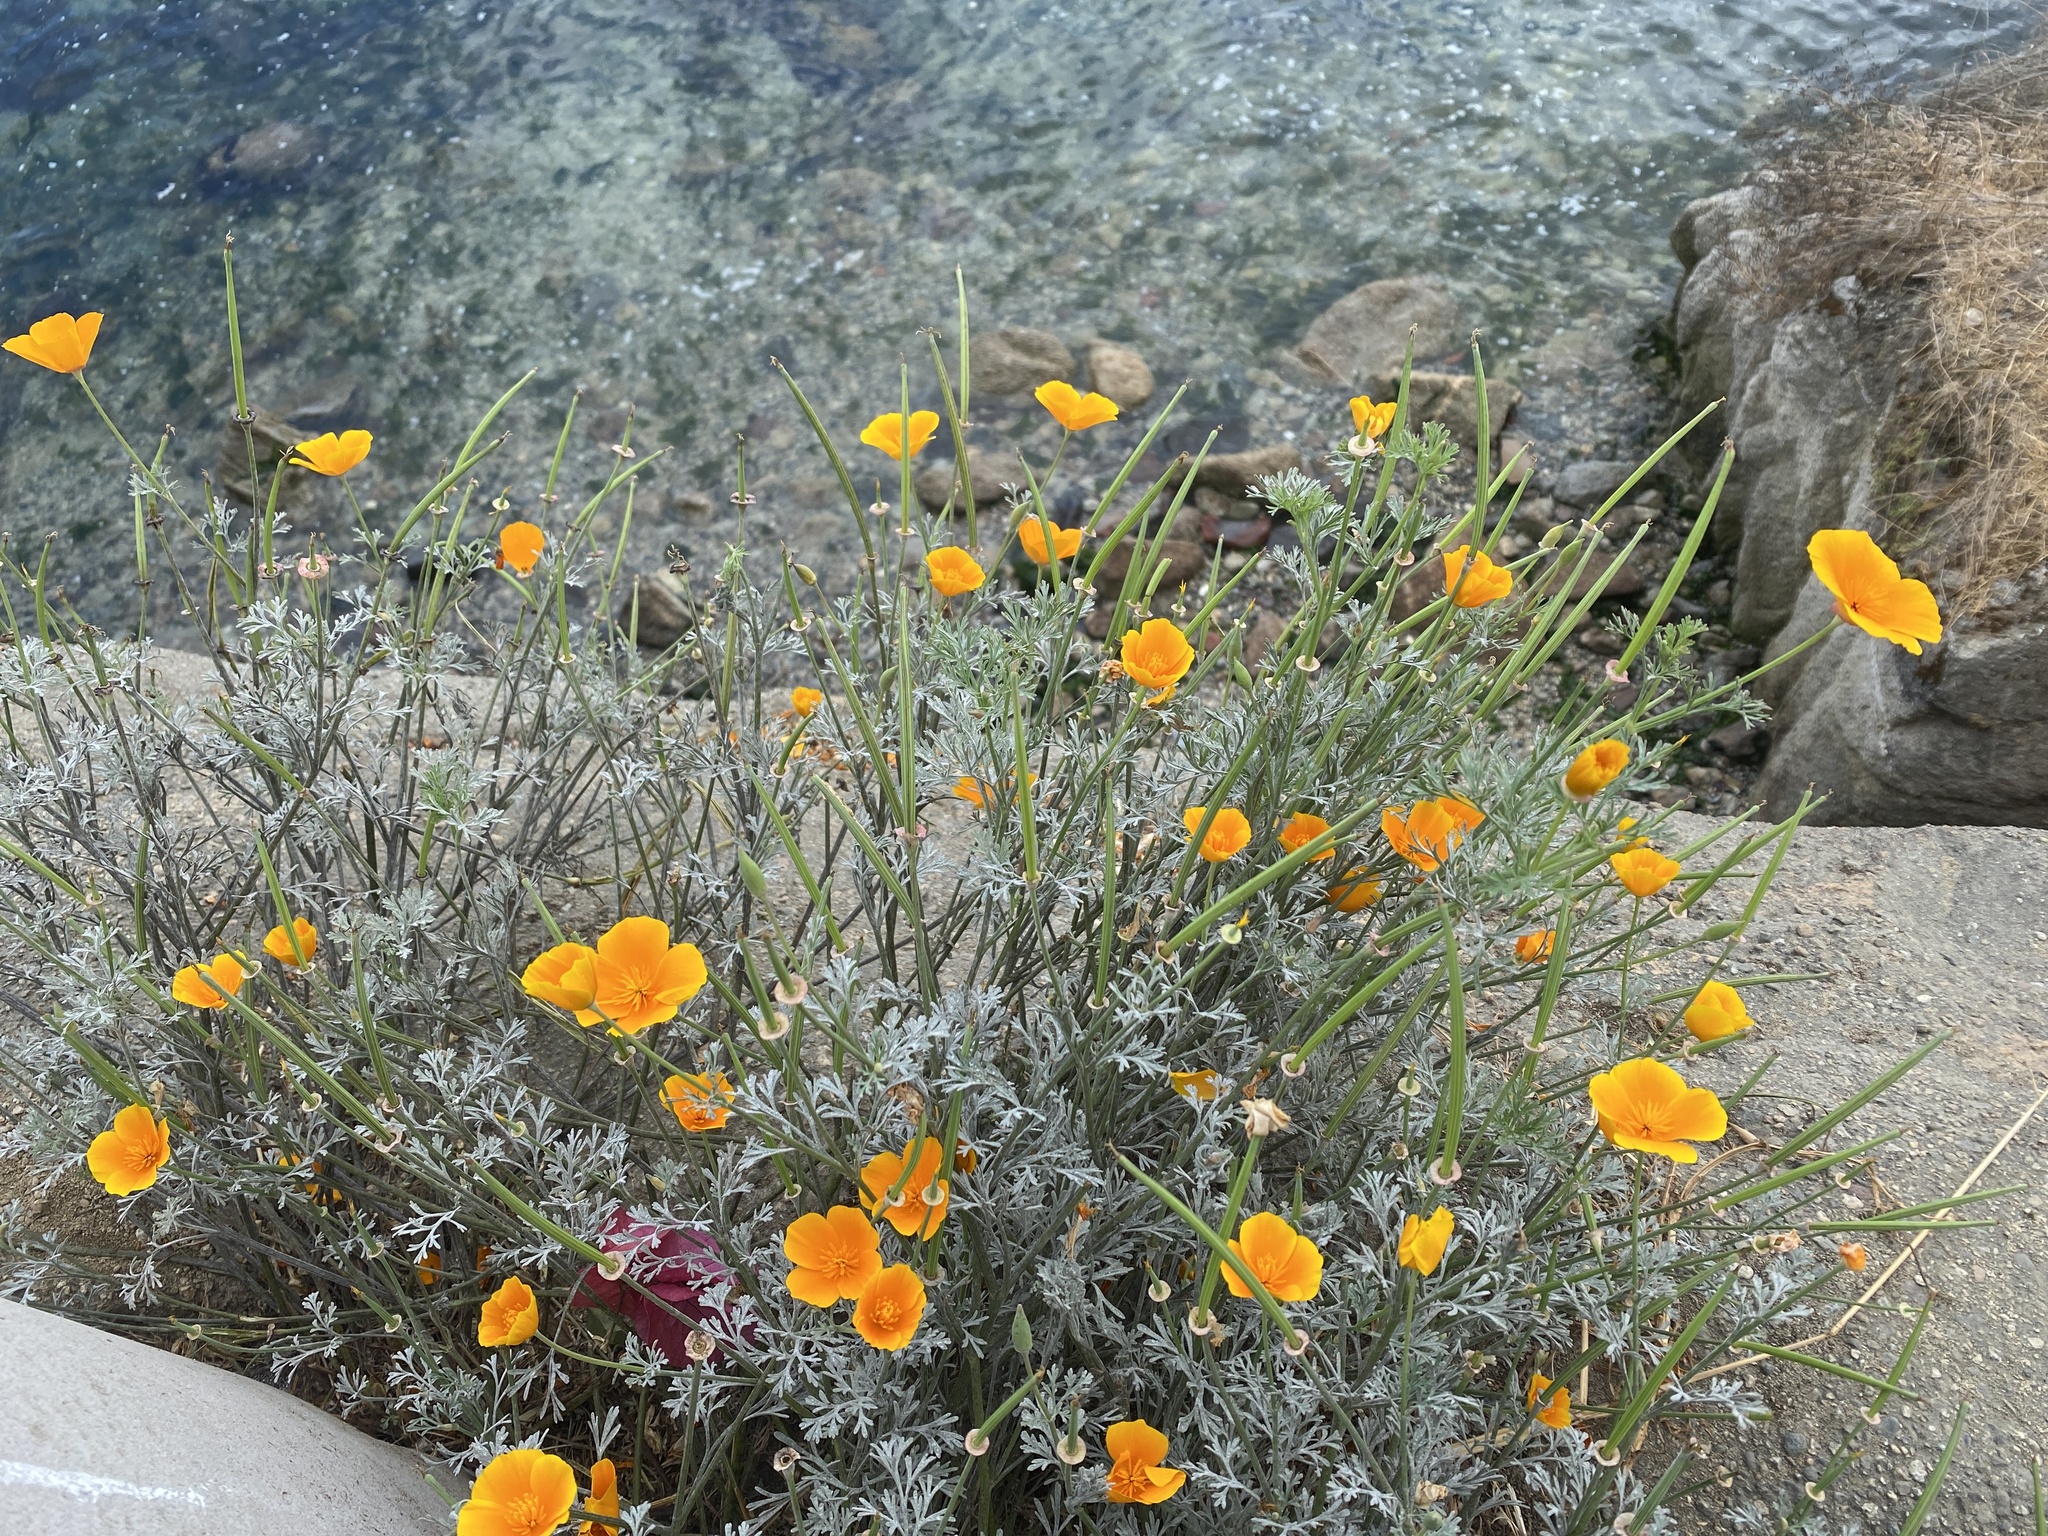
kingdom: Plantae
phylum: Tracheophyta
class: Magnoliopsida
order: Ranunculales
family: Papaveraceae
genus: Eschscholzia
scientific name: Eschscholzia californica
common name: California poppy
